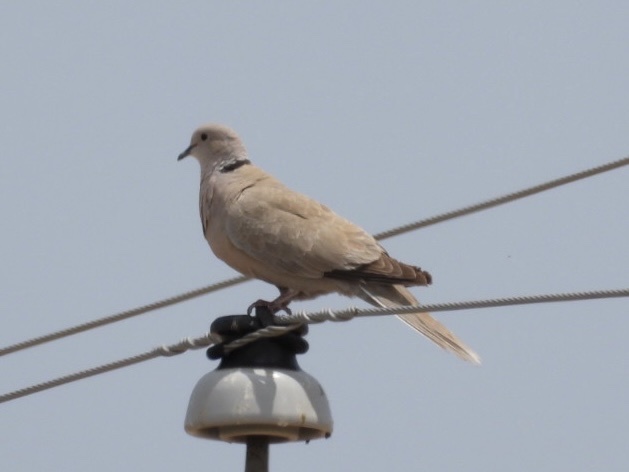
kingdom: Animalia
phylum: Chordata
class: Aves
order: Columbiformes
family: Columbidae
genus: Streptopelia
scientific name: Streptopelia decaocto
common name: Eurasian collared dove
